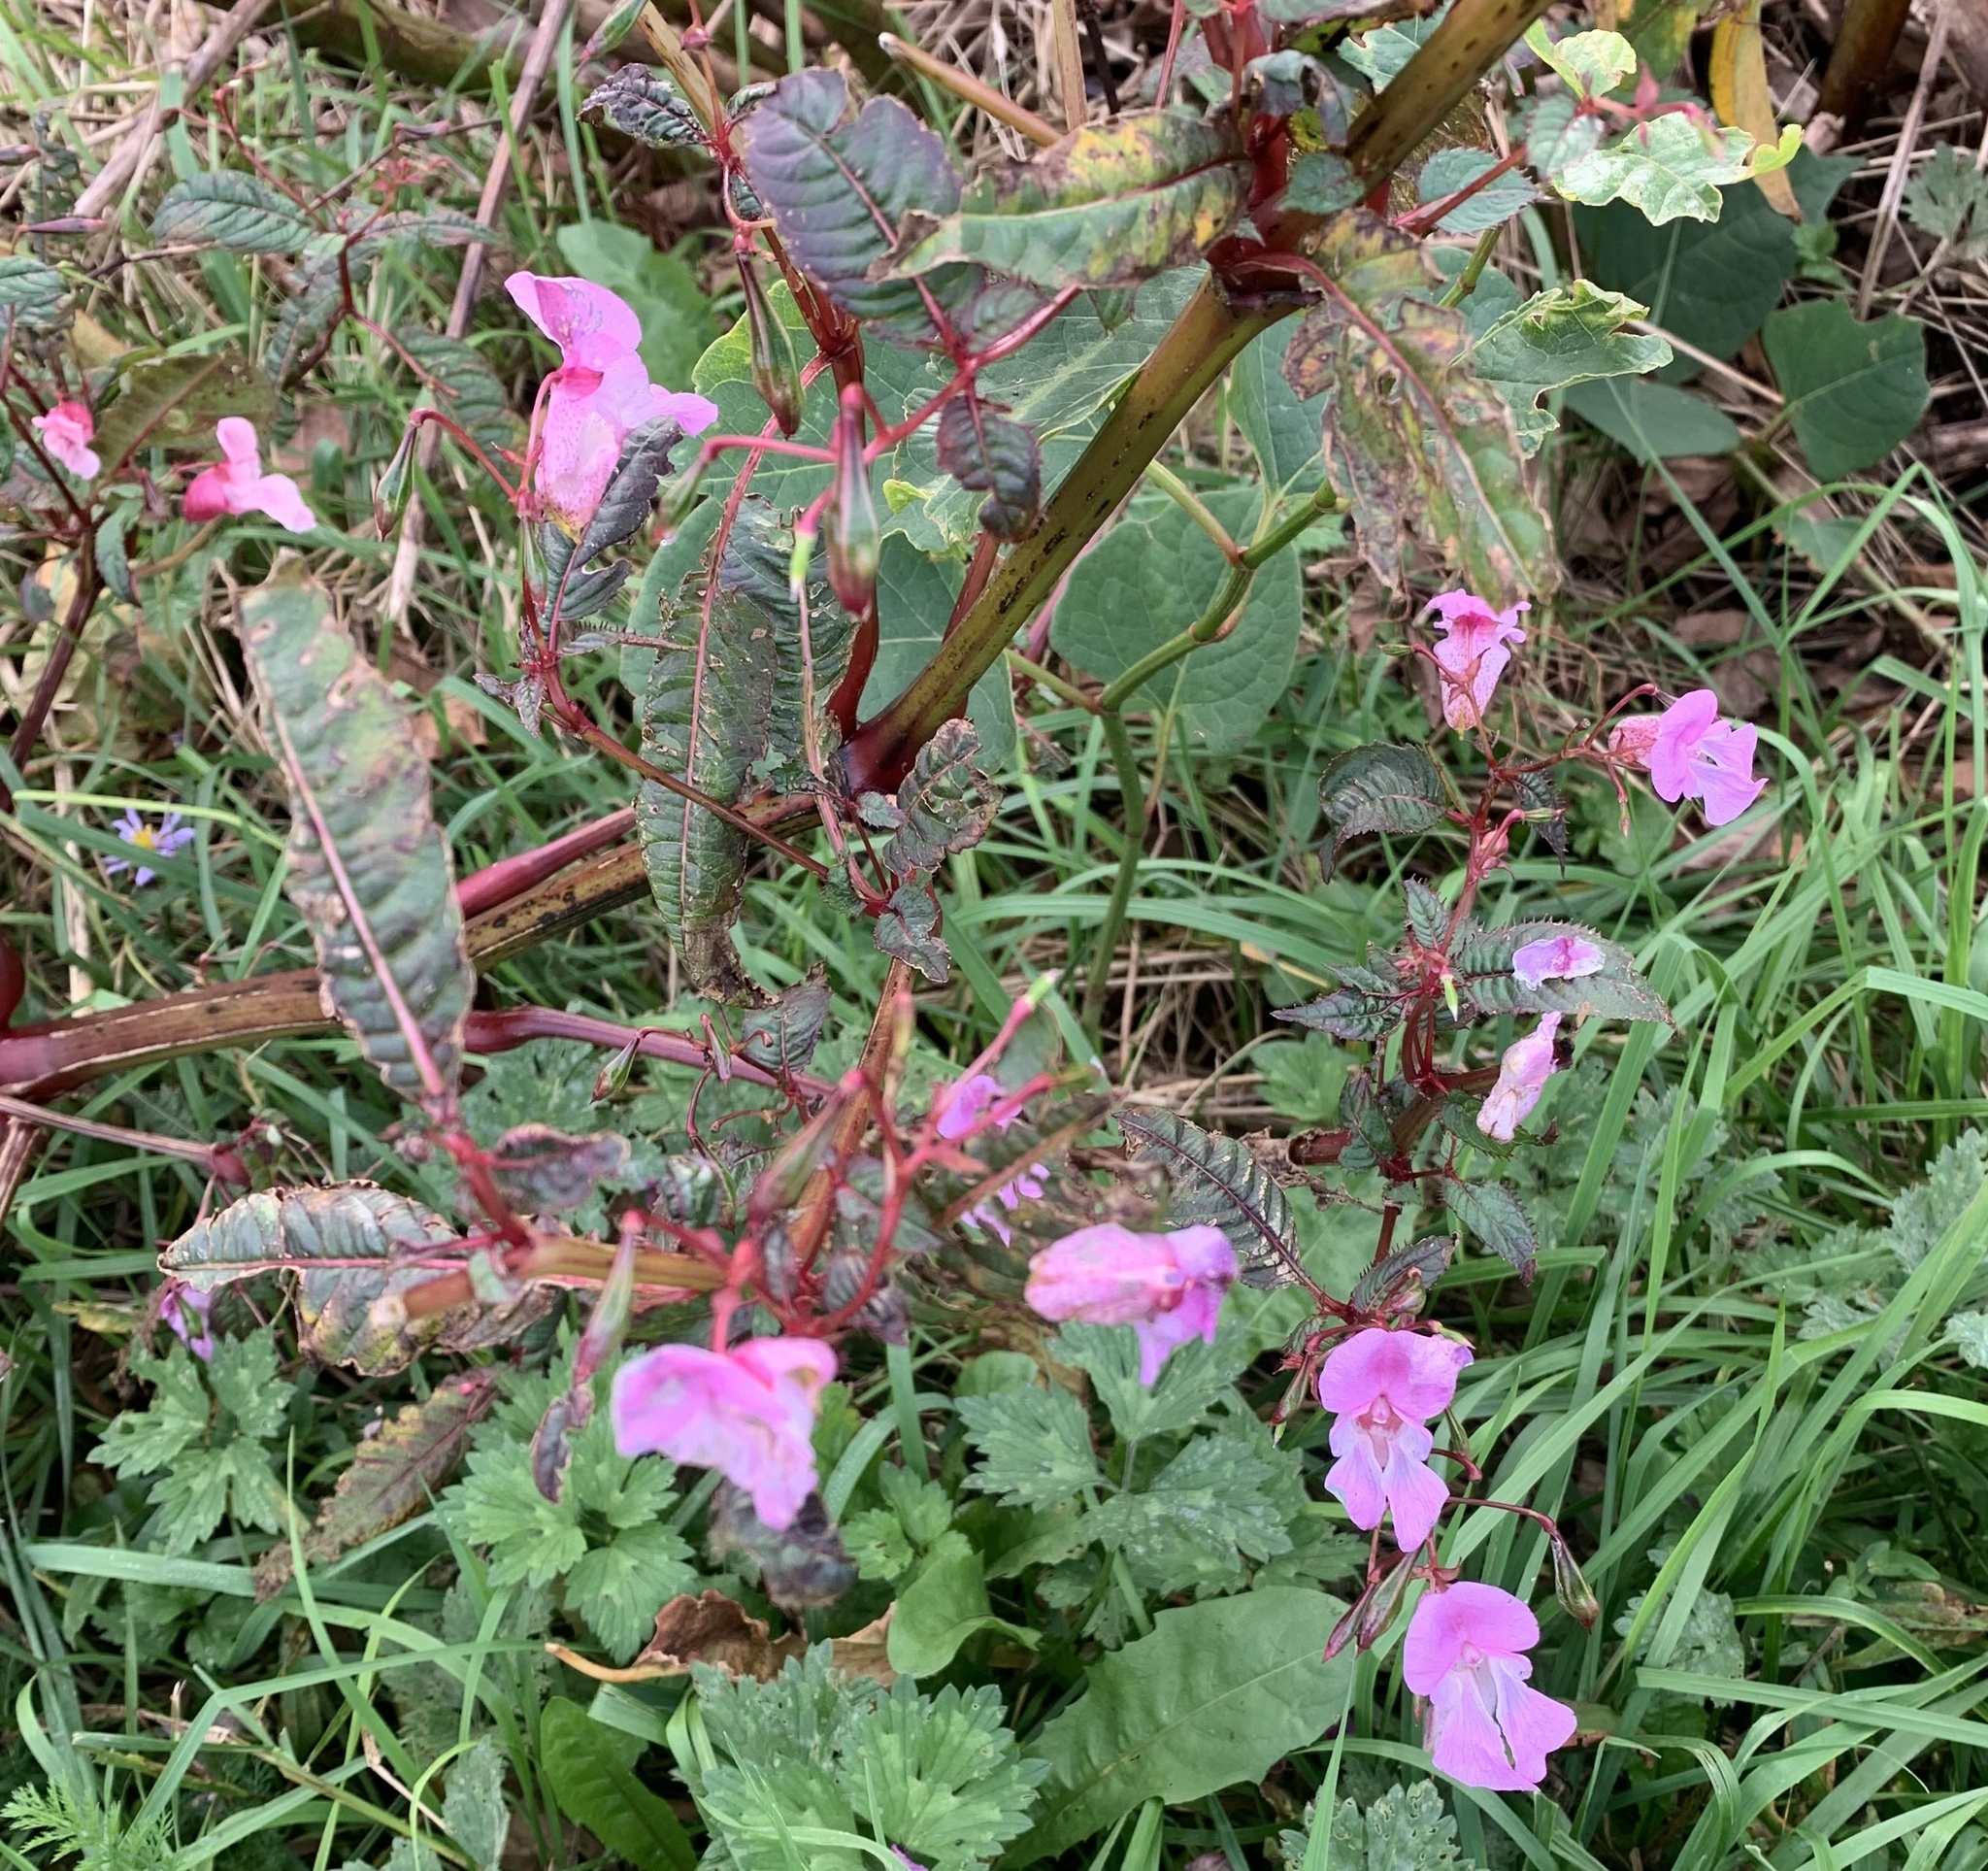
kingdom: Plantae
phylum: Tracheophyta
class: Magnoliopsida
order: Ericales
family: Balsaminaceae
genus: Impatiens
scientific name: Impatiens glandulifera
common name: Himalayan balsam
